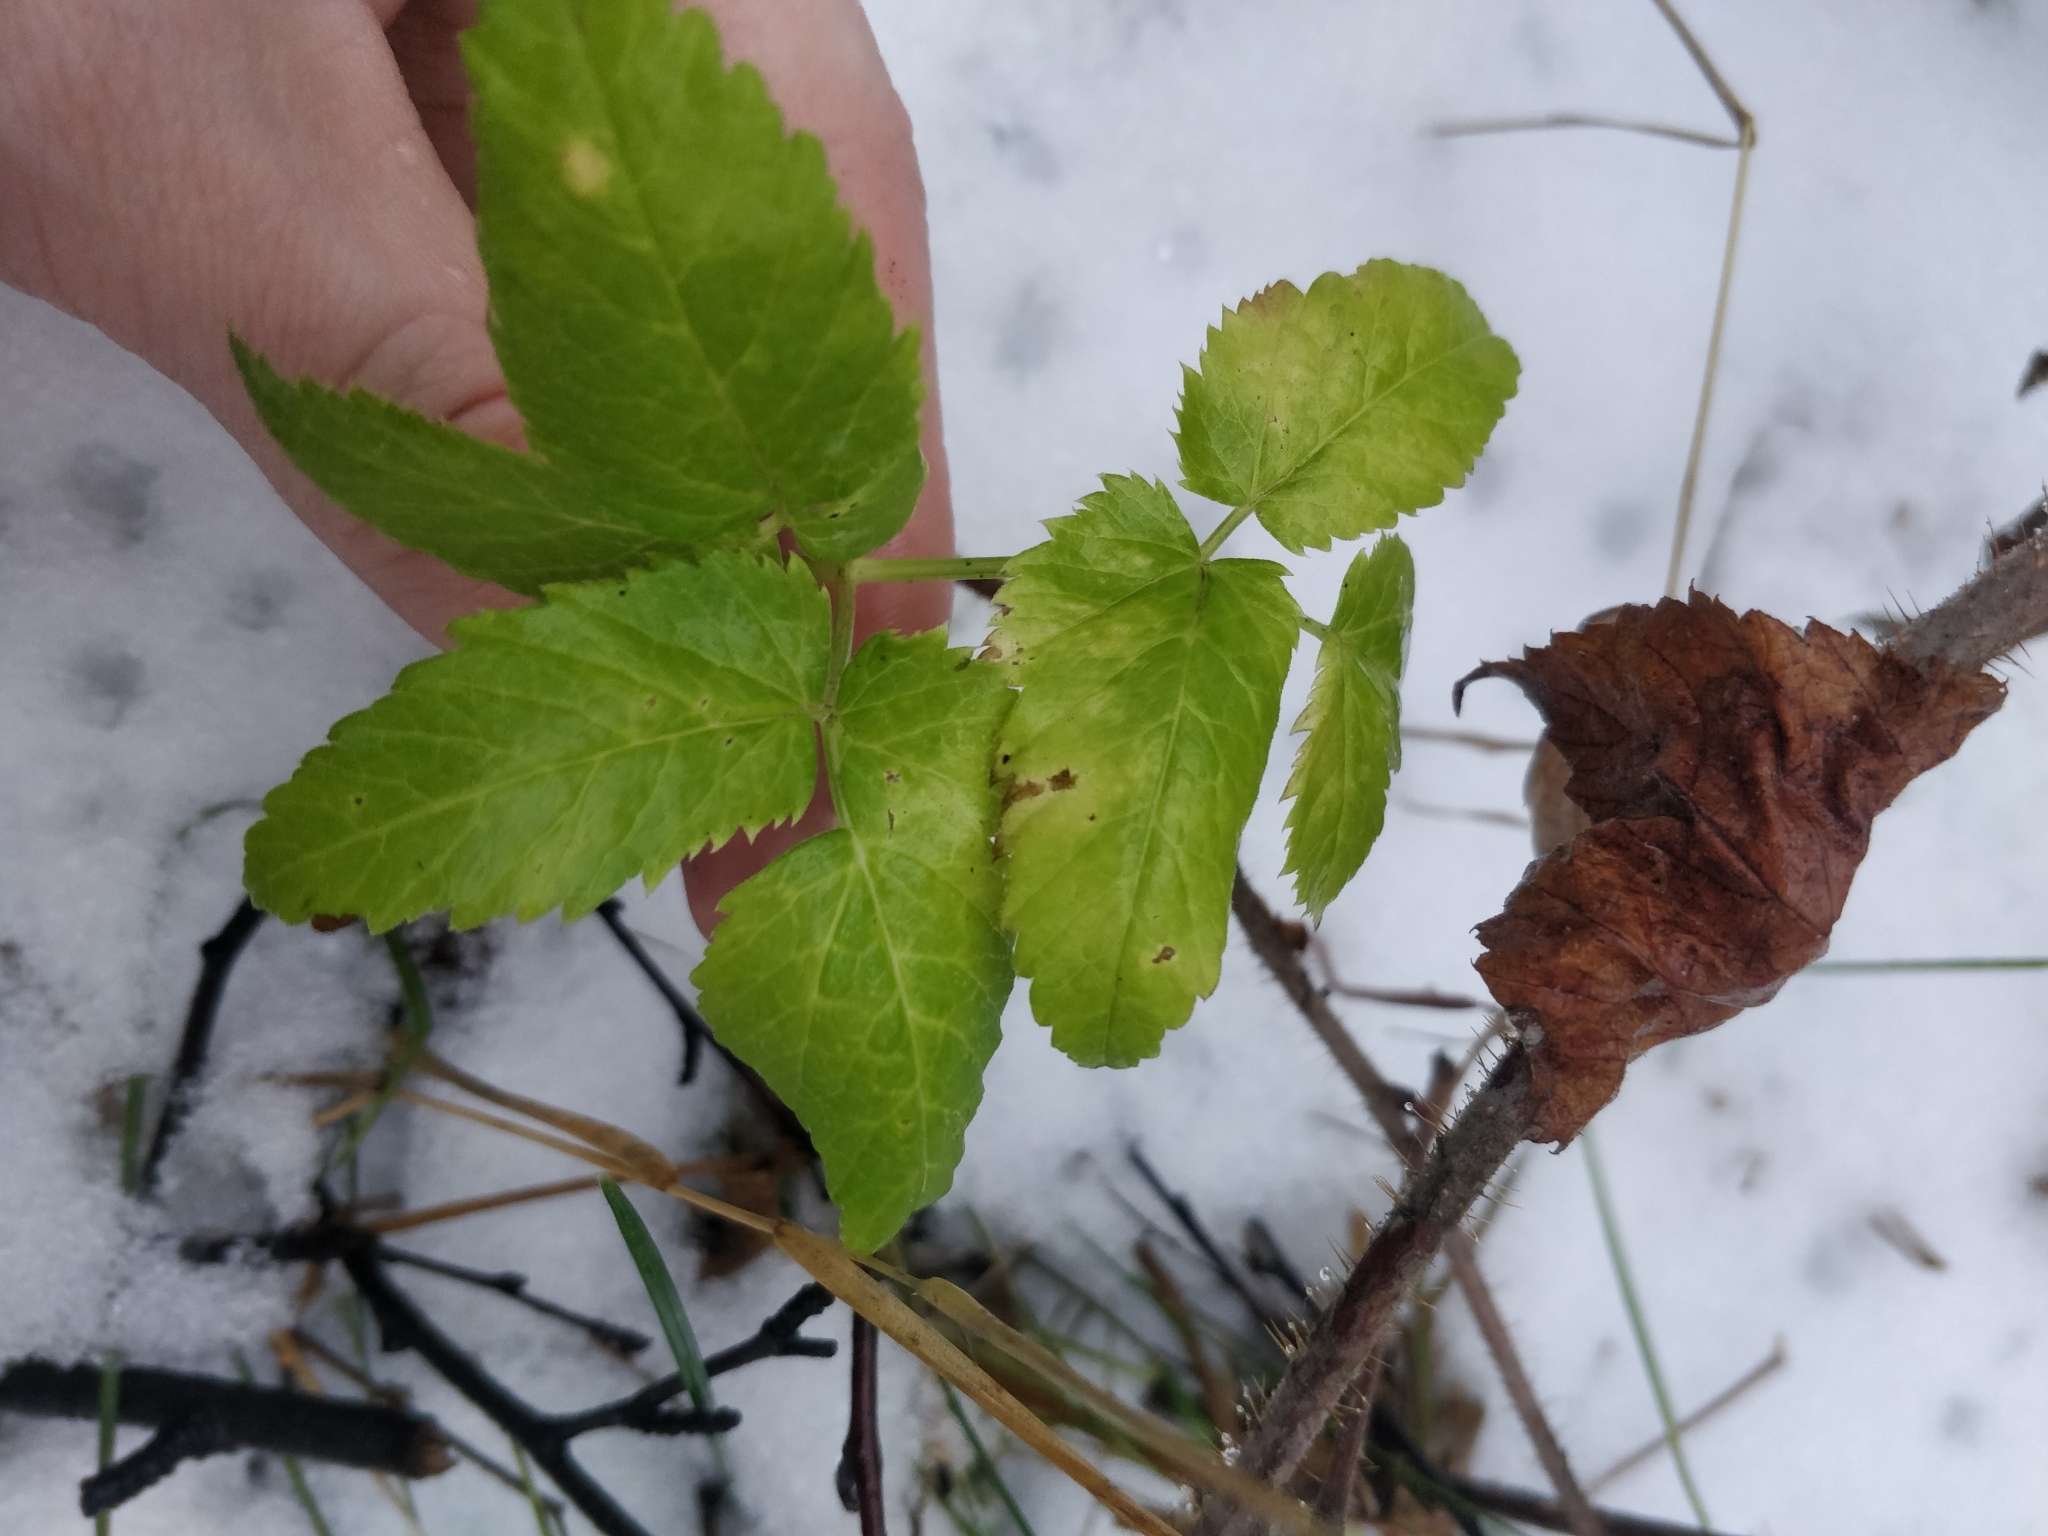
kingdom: Plantae
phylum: Tracheophyta
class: Magnoliopsida
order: Apiales
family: Apiaceae
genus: Aegopodium
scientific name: Aegopodium podagraria
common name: Ground-elder
